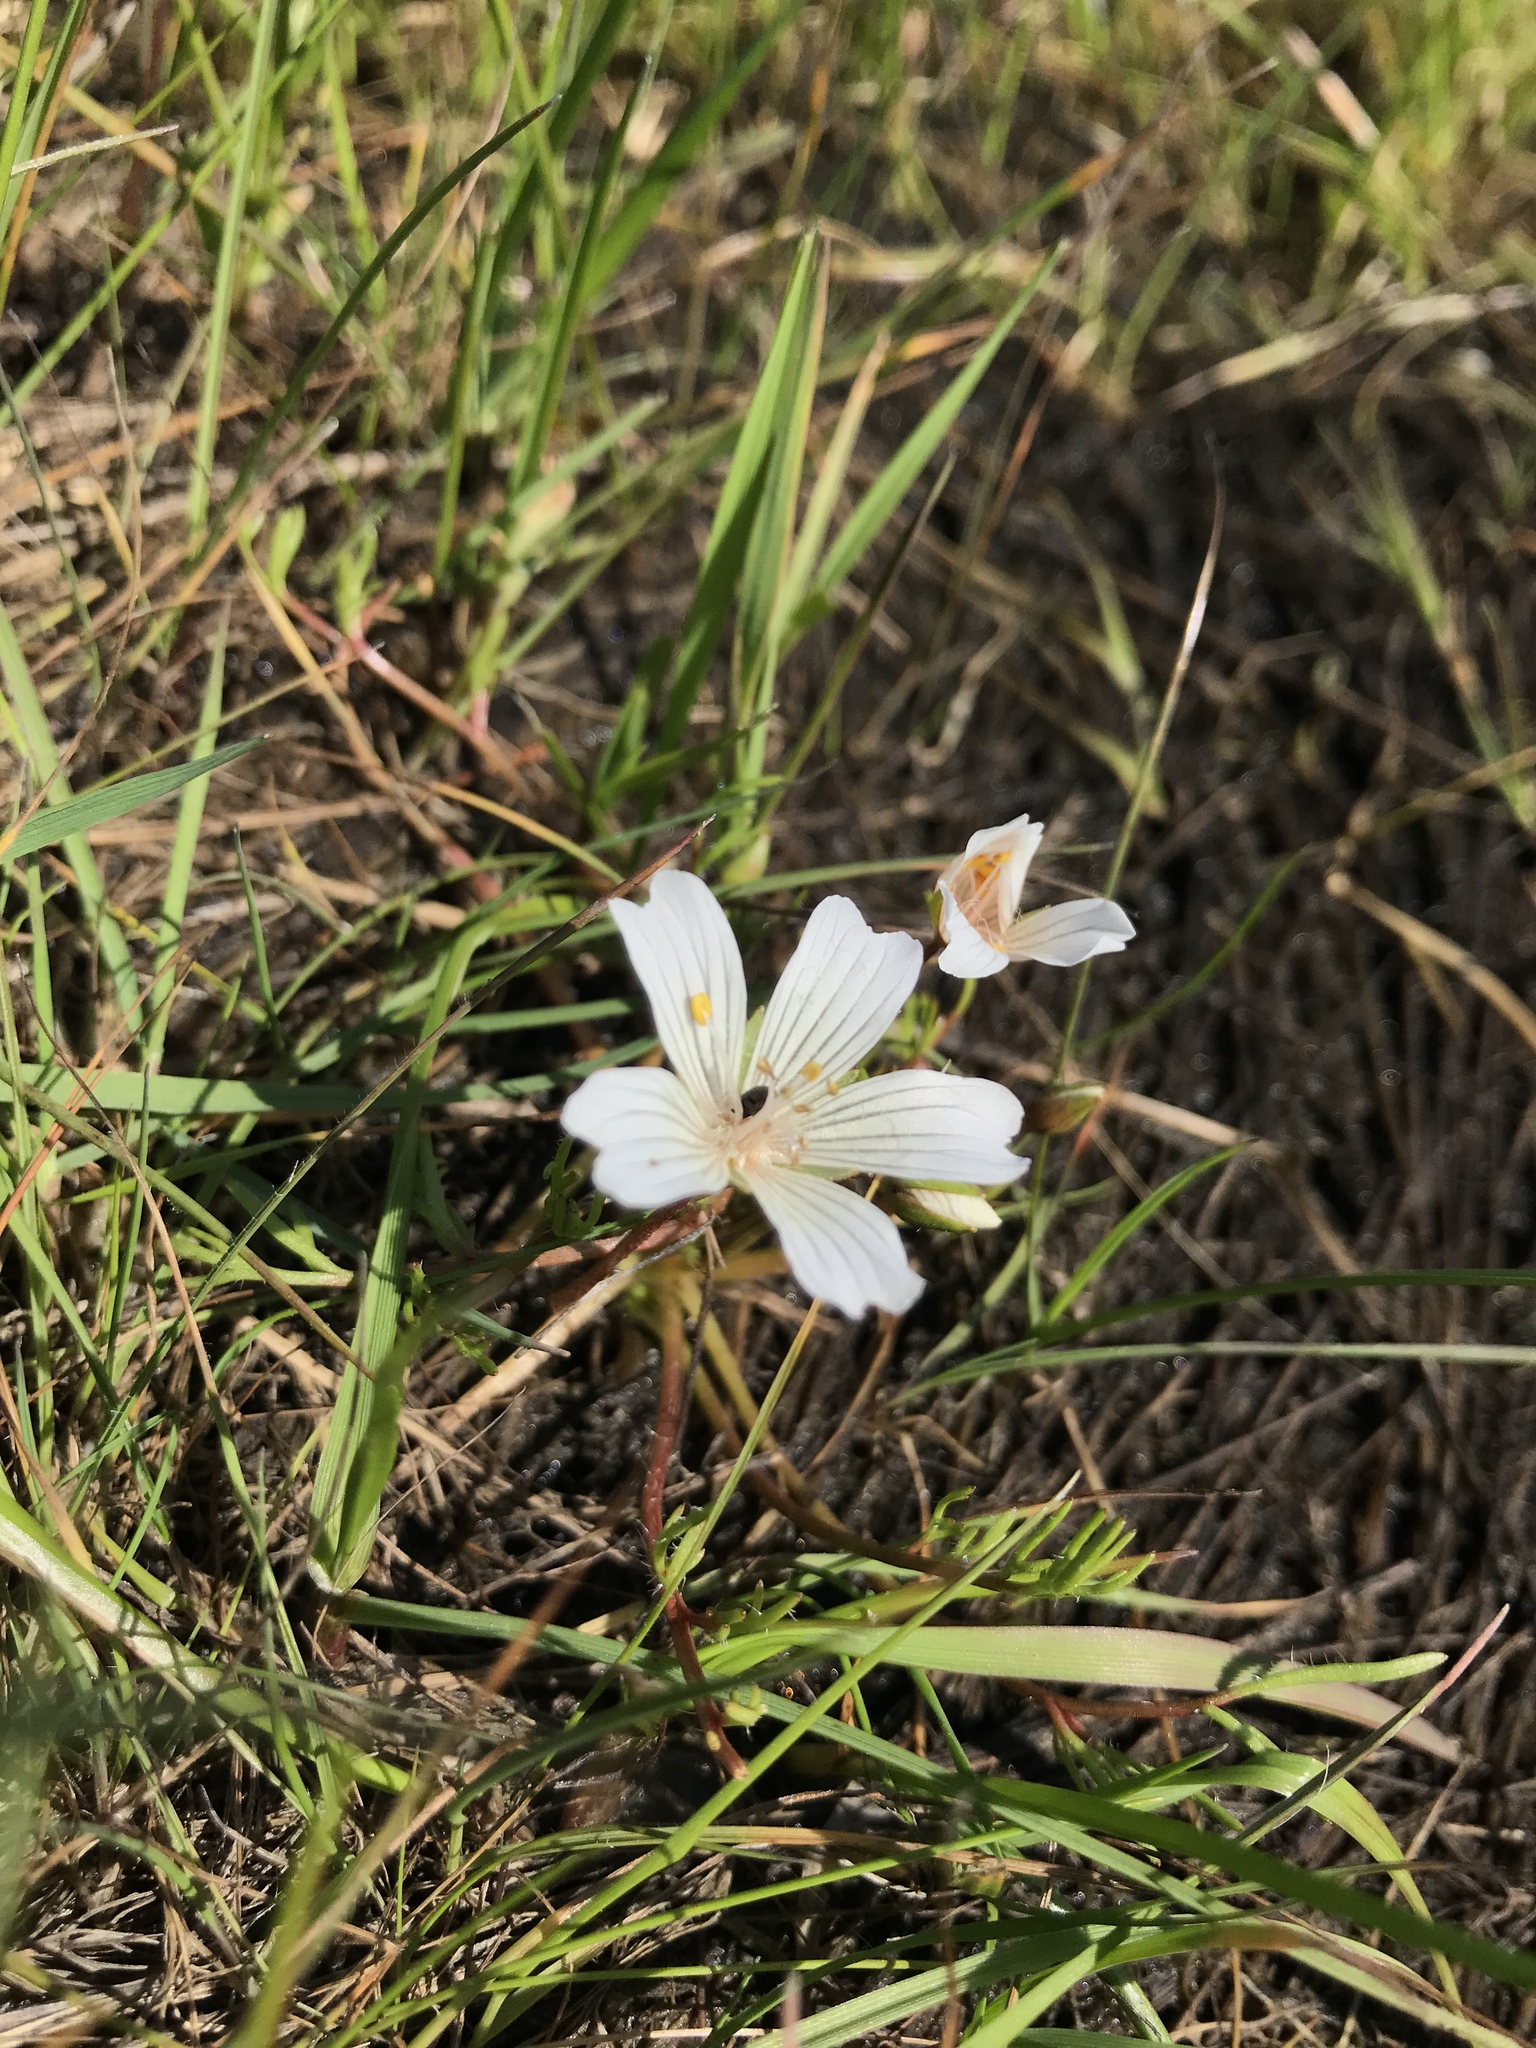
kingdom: Plantae
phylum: Tracheophyta
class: Magnoliopsida
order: Brassicales
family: Limnanthaceae
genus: Limnanthes
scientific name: Limnanthes douglasii
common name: Meadow-foam
